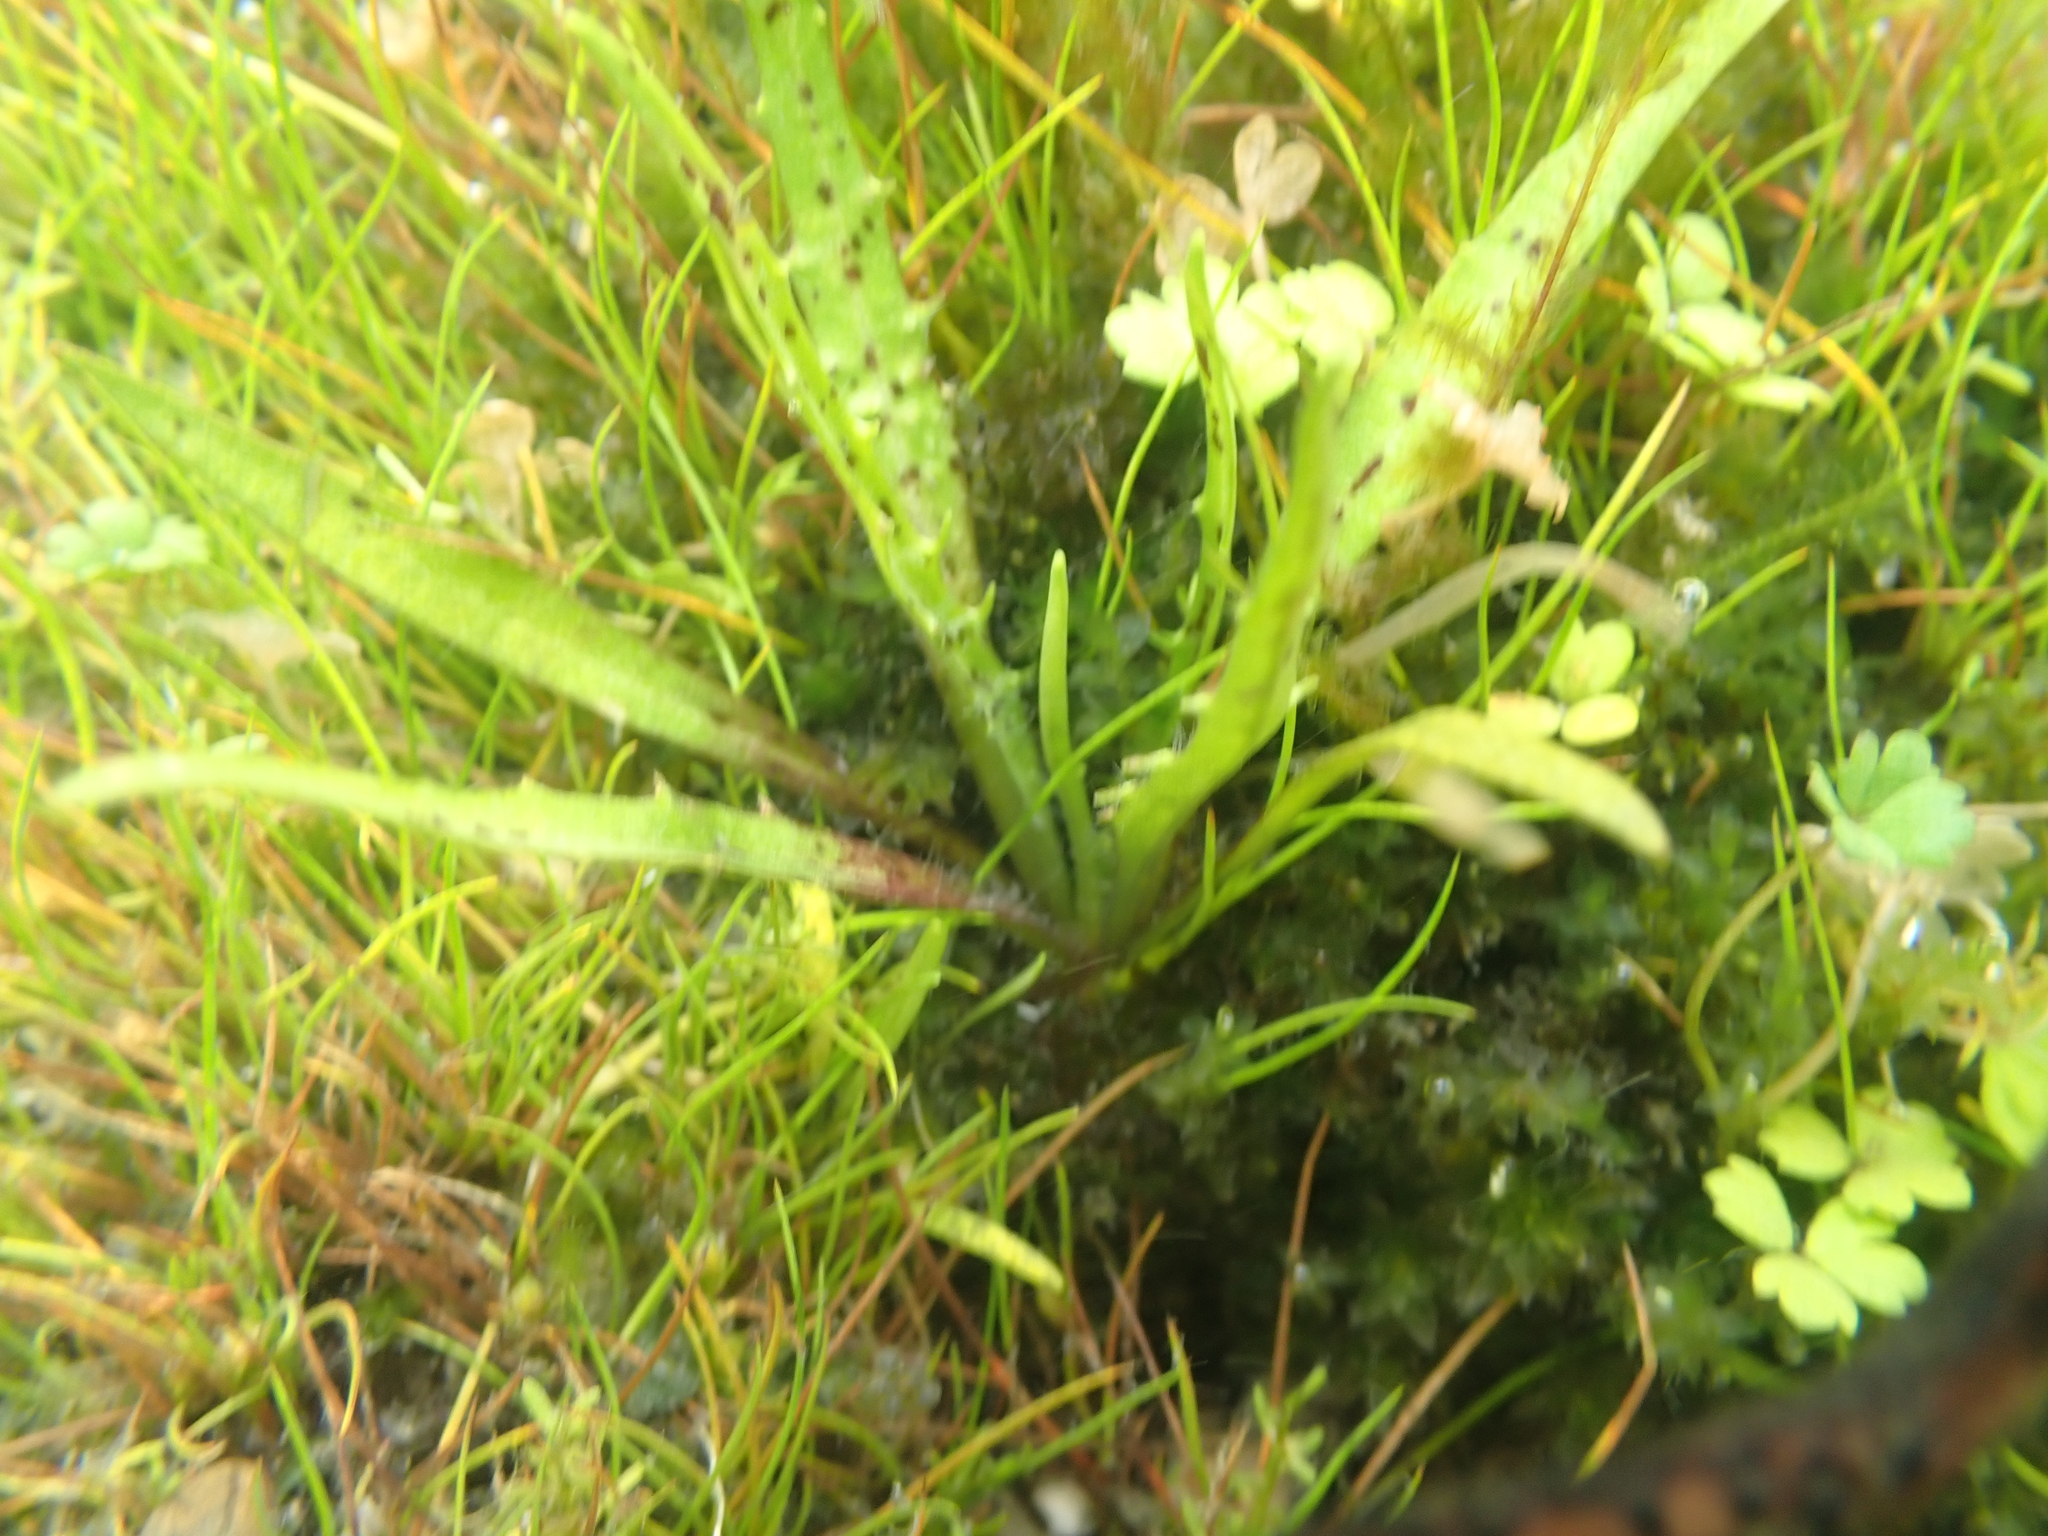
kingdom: Plantae
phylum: Tracheophyta
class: Magnoliopsida
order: Lamiales
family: Plantaginaceae
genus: Plantago
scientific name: Plantago triandra
